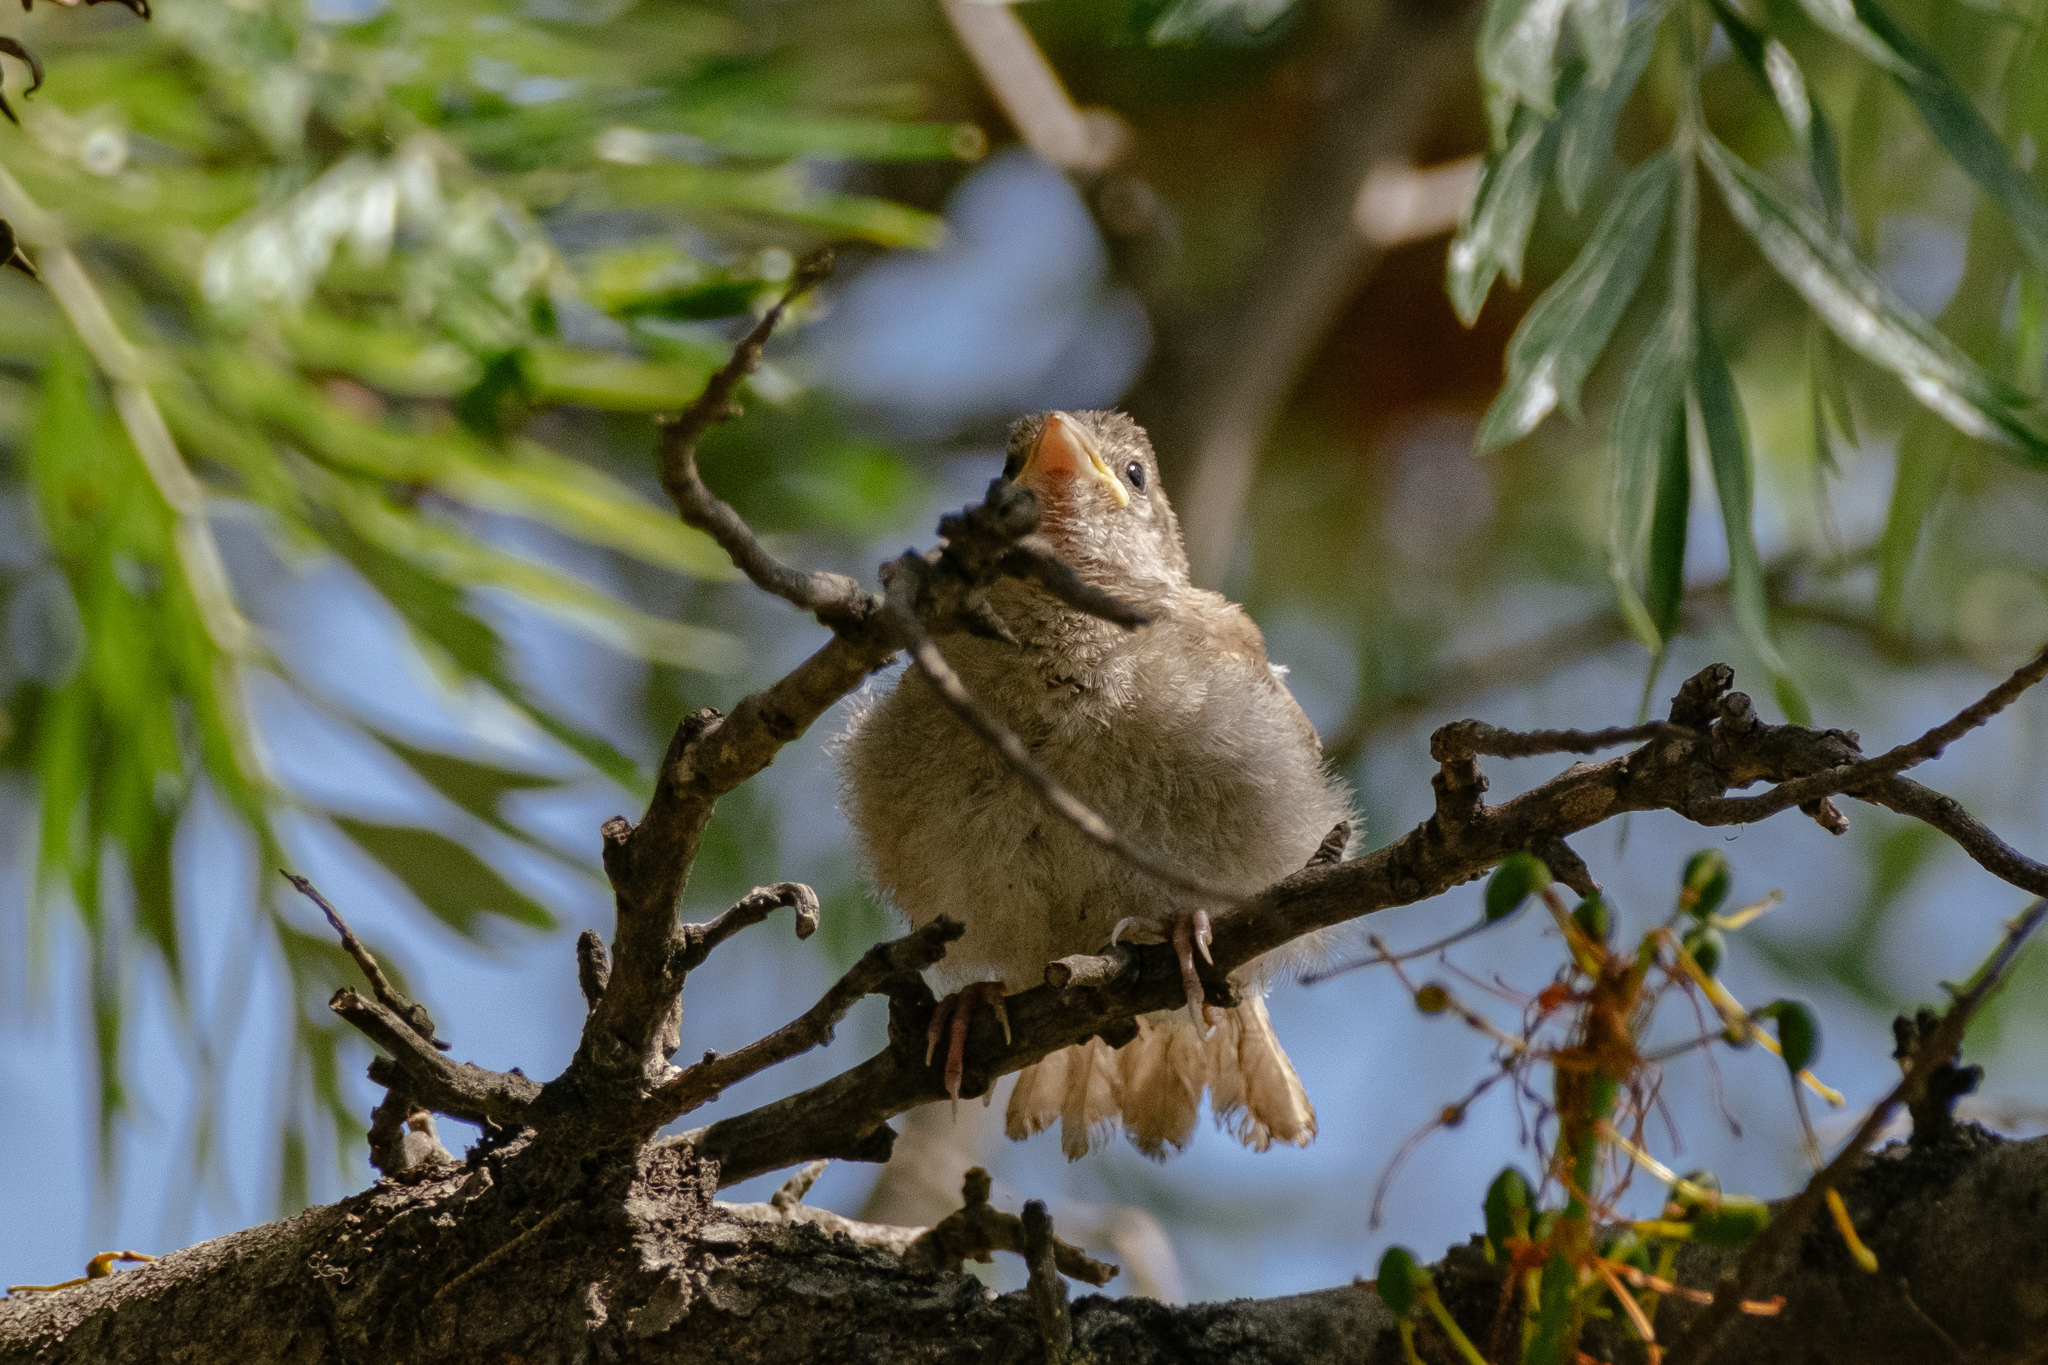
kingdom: Animalia
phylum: Chordata
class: Aves
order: Passeriformes
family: Passeridae
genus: Passer
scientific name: Passer domesticus
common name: House sparrow
